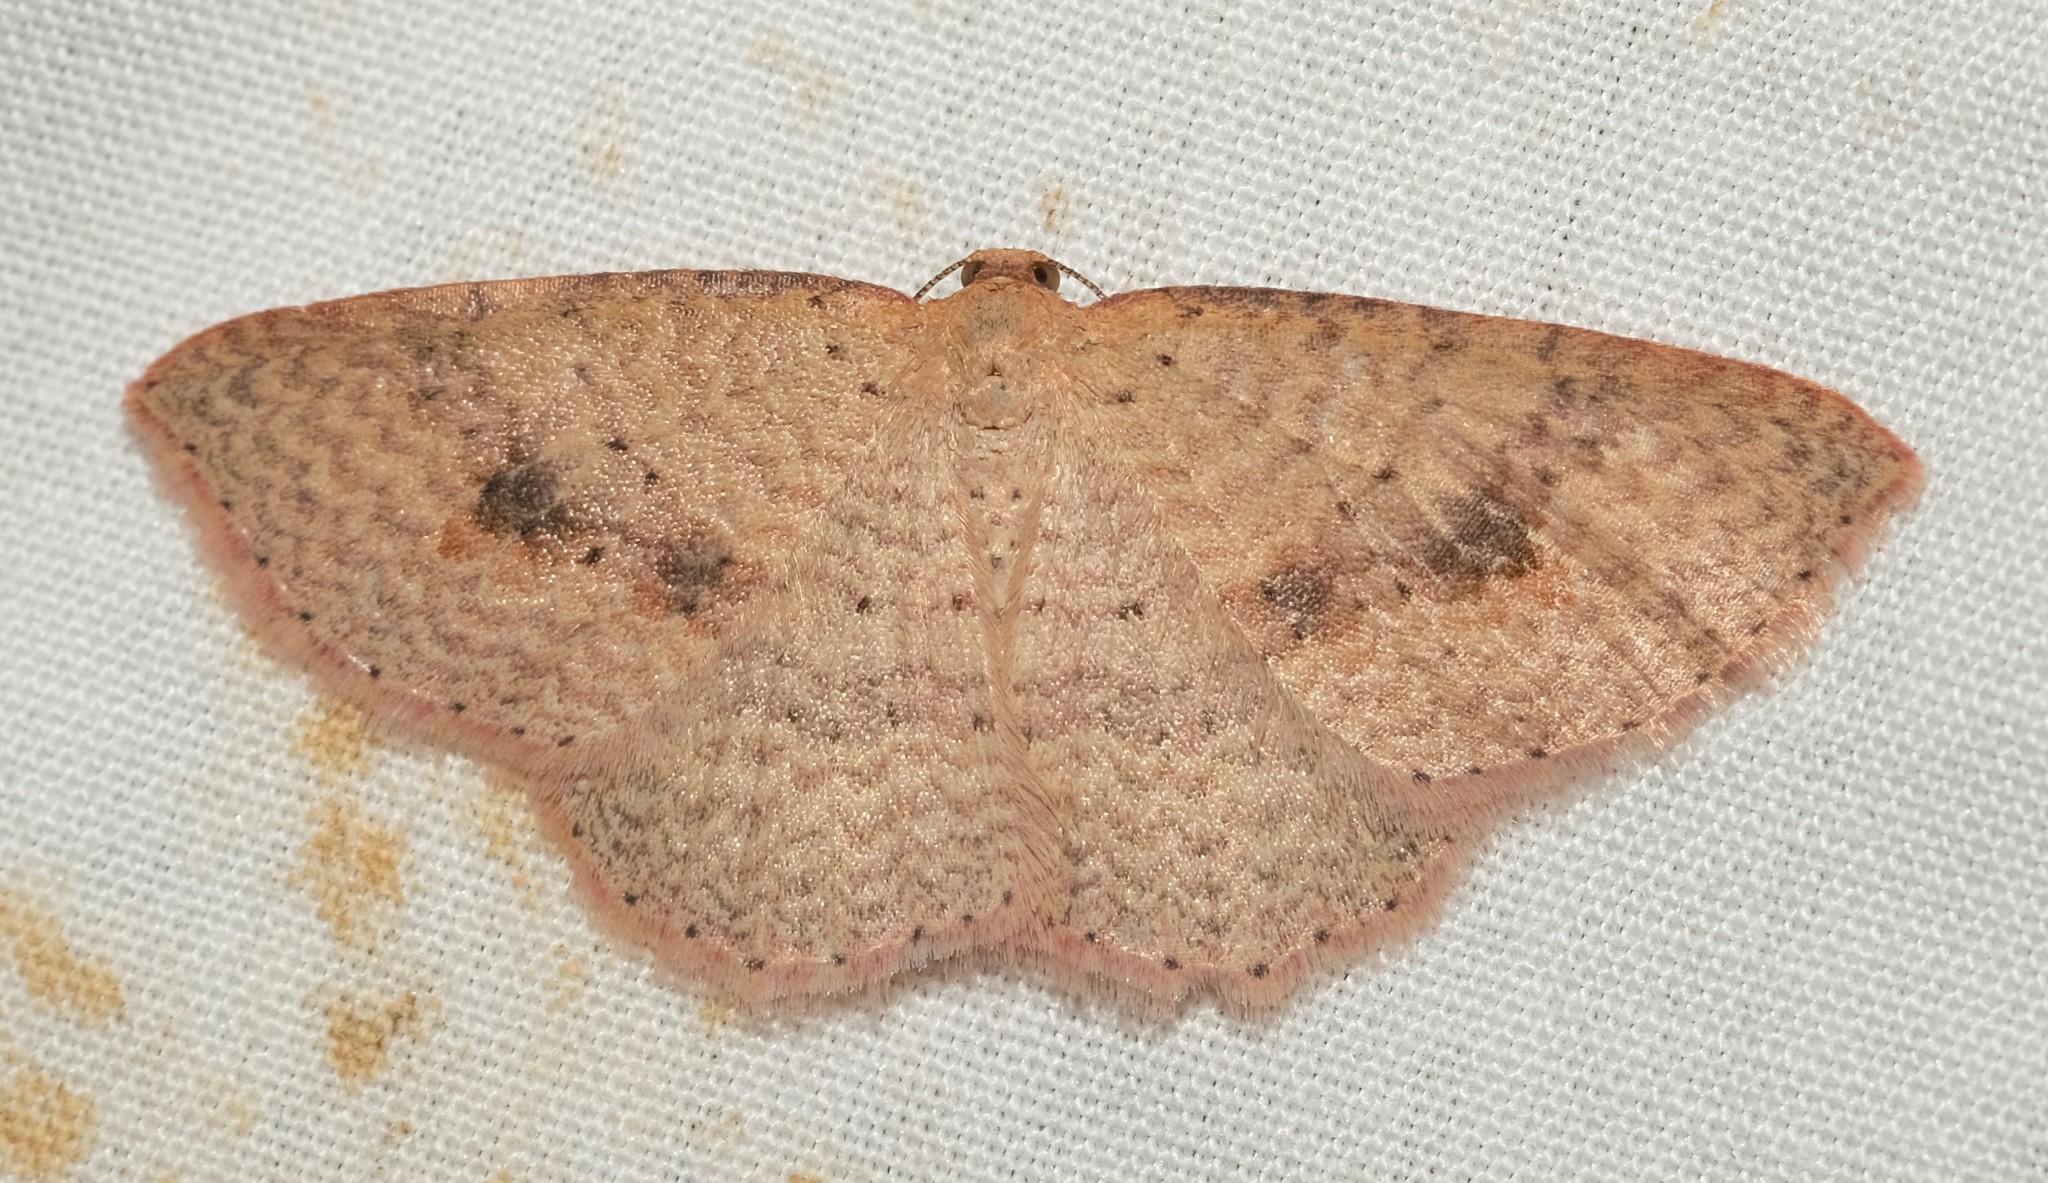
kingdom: Animalia
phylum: Arthropoda
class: Insecta
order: Lepidoptera
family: Geometridae
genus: Epicyme
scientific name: Epicyme rubropunctaria
